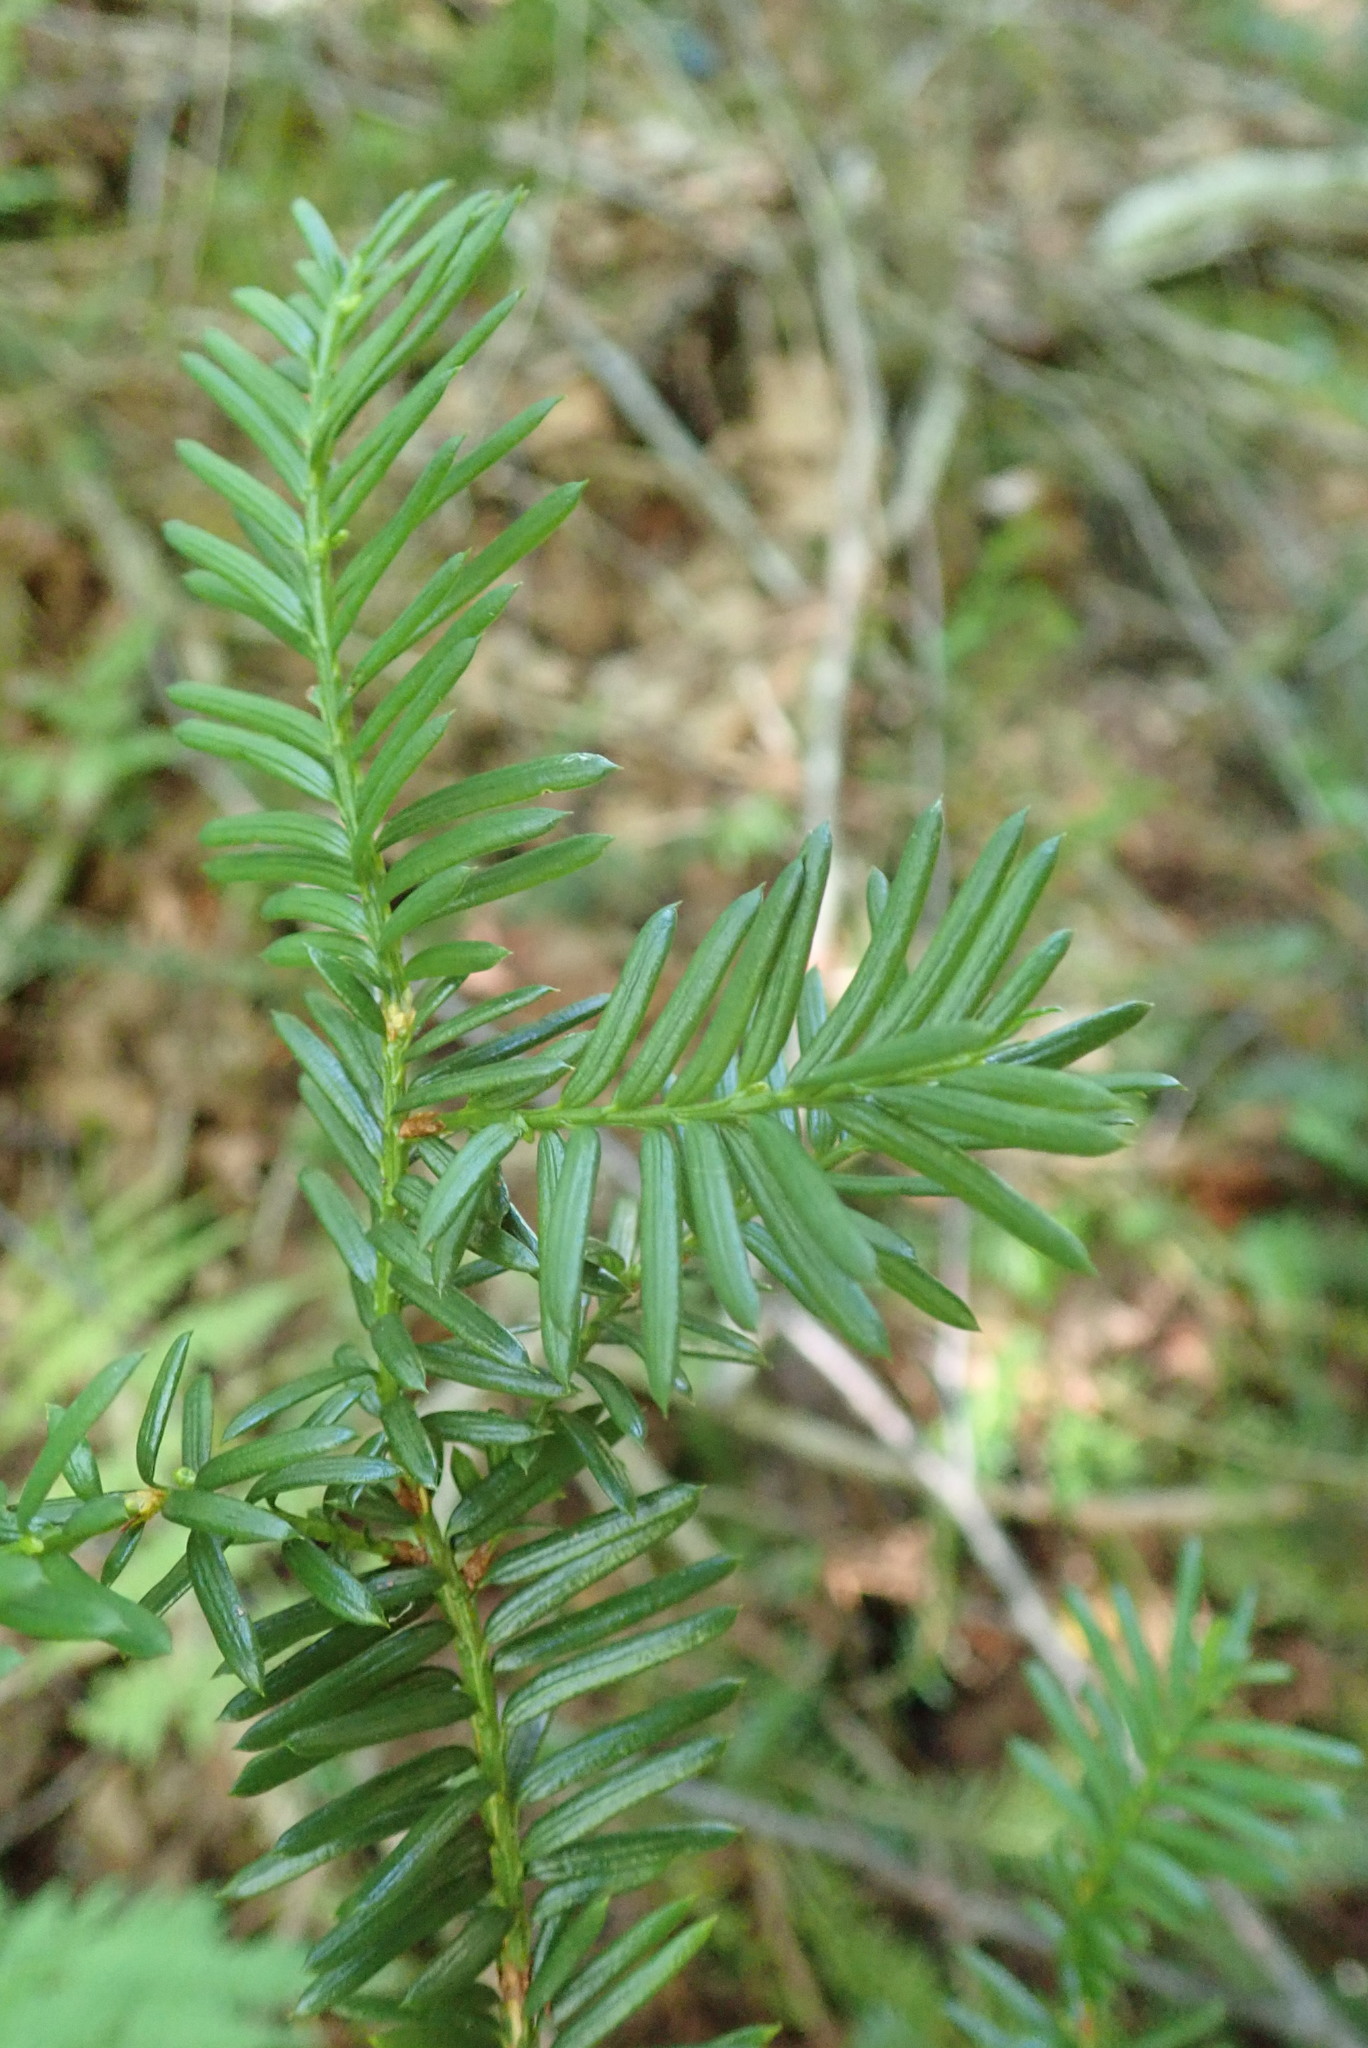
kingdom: Plantae
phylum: Tracheophyta
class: Pinopsida
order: Pinales
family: Taxaceae
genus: Taxus
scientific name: Taxus canadensis
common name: American yew
